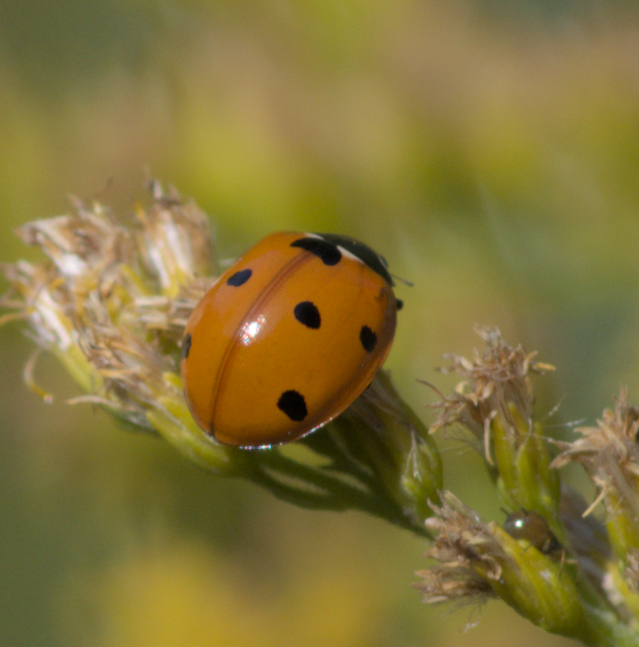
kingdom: Animalia
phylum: Arthropoda
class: Insecta
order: Coleoptera
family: Coccinellidae
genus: Coccinella
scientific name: Coccinella septempunctata
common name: Sevenspotted lady beetle
